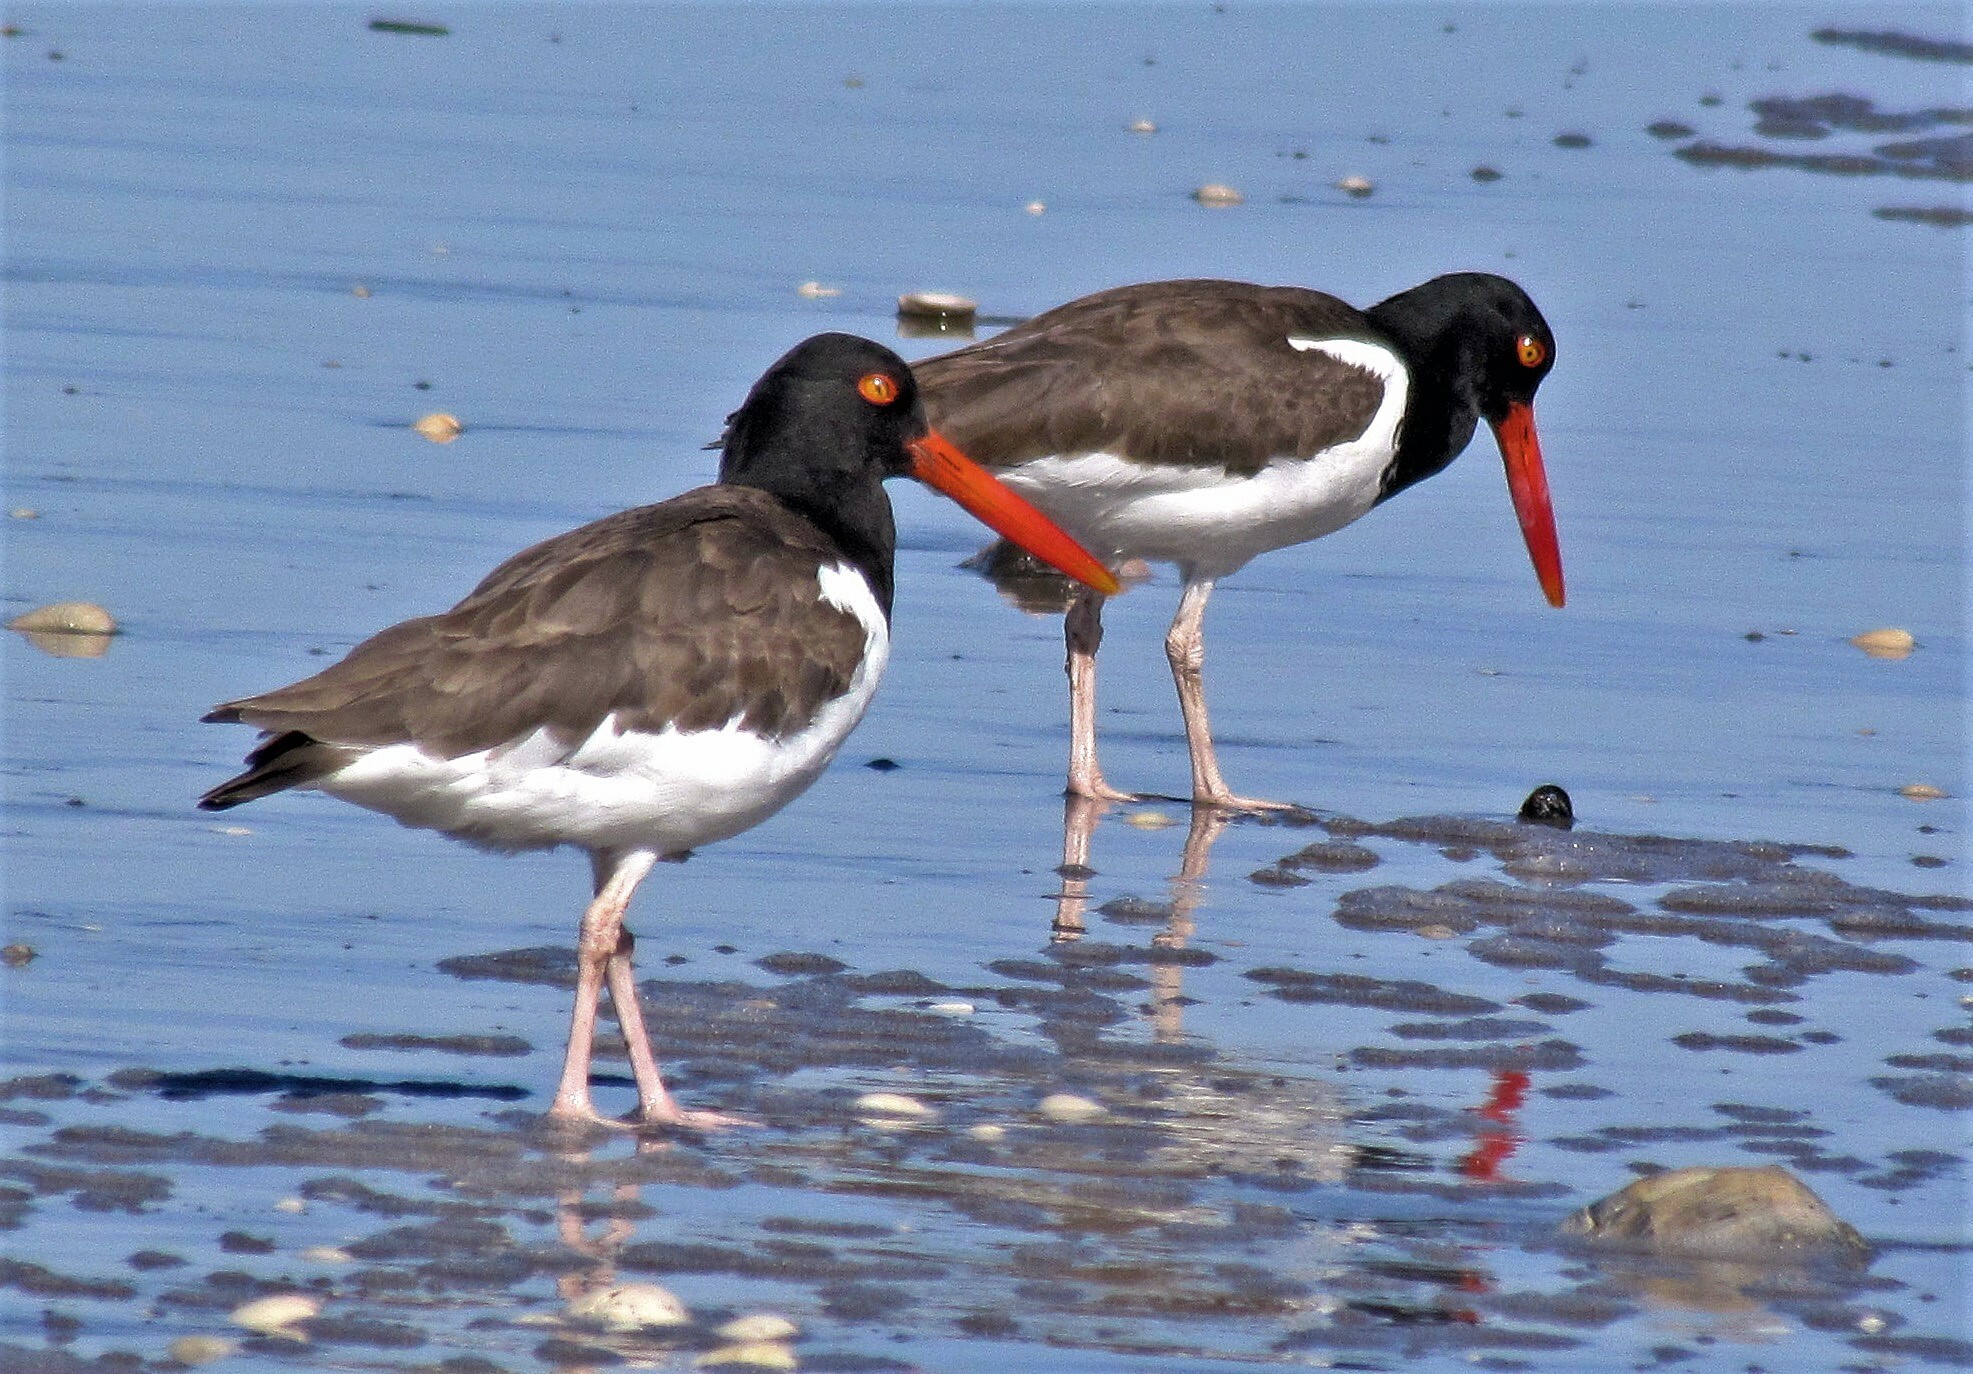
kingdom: Animalia
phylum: Chordata
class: Aves
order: Charadriiformes
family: Haematopodidae
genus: Haematopus
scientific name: Haematopus palliatus
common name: American oystercatcher
